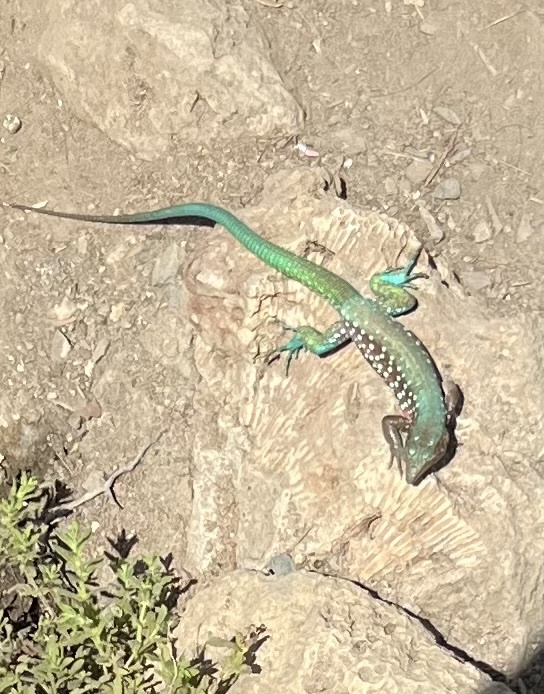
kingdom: Animalia
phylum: Chordata
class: Squamata
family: Teiidae
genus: Cnemidophorus
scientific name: Cnemidophorus arubensis
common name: Aruba whiptail
